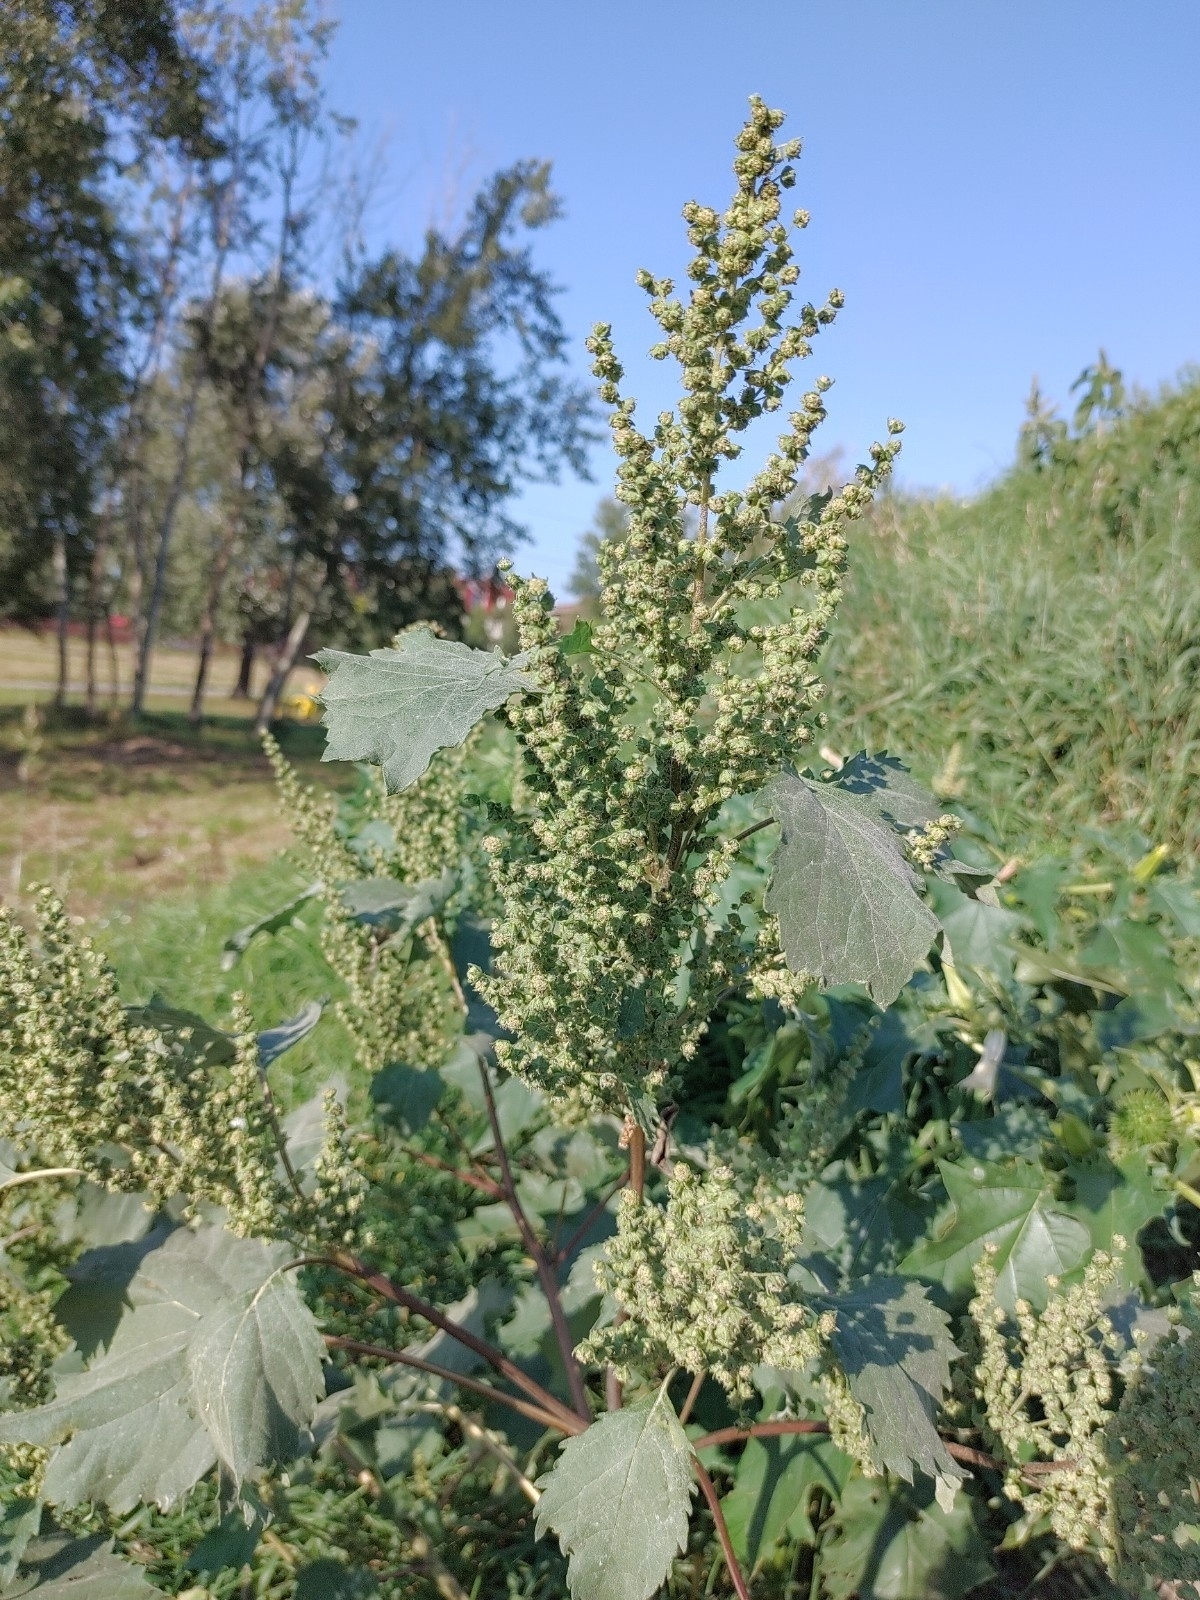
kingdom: Plantae
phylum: Tracheophyta
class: Magnoliopsida
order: Asterales
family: Asteraceae
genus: Cyclachaena
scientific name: Cyclachaena xanthiifolia
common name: Giant sumpweed
